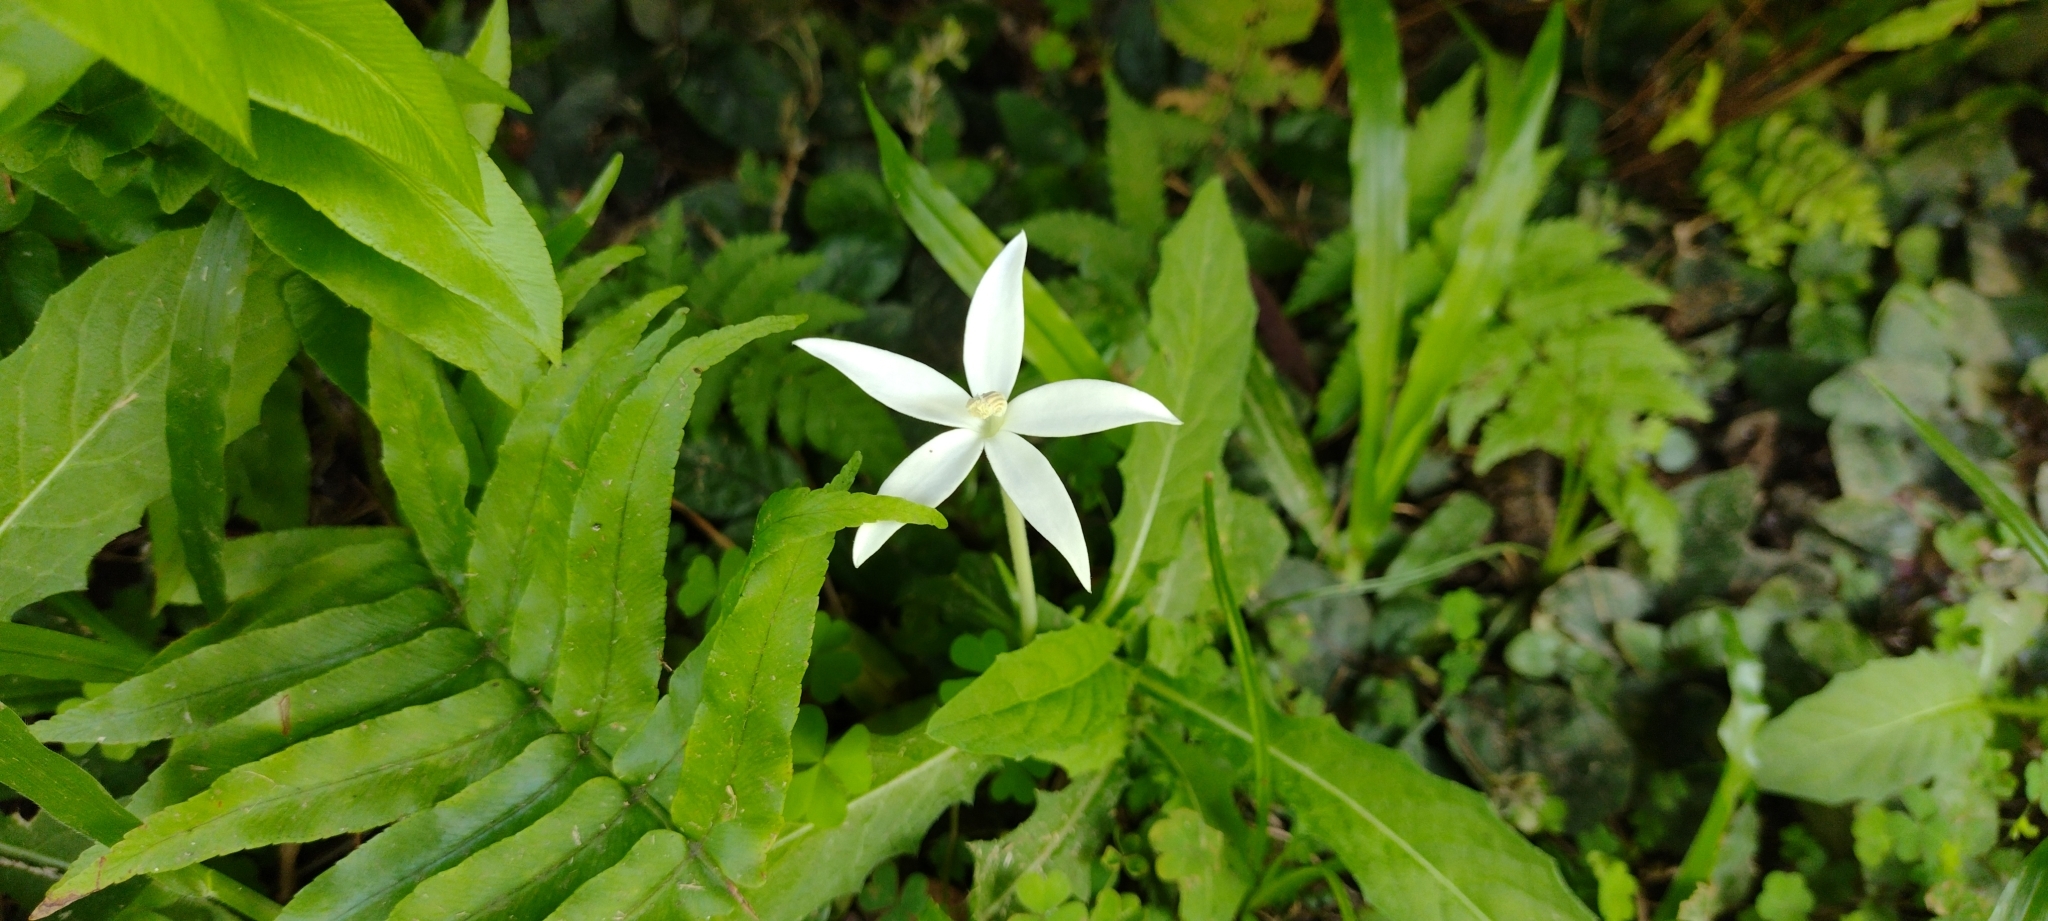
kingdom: Plantae
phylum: Tracheophyta
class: Magnoliopsida
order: Asterales
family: Campanulaceae
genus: Hippobroma
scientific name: Hippobroma longiflora
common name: Madamfate
